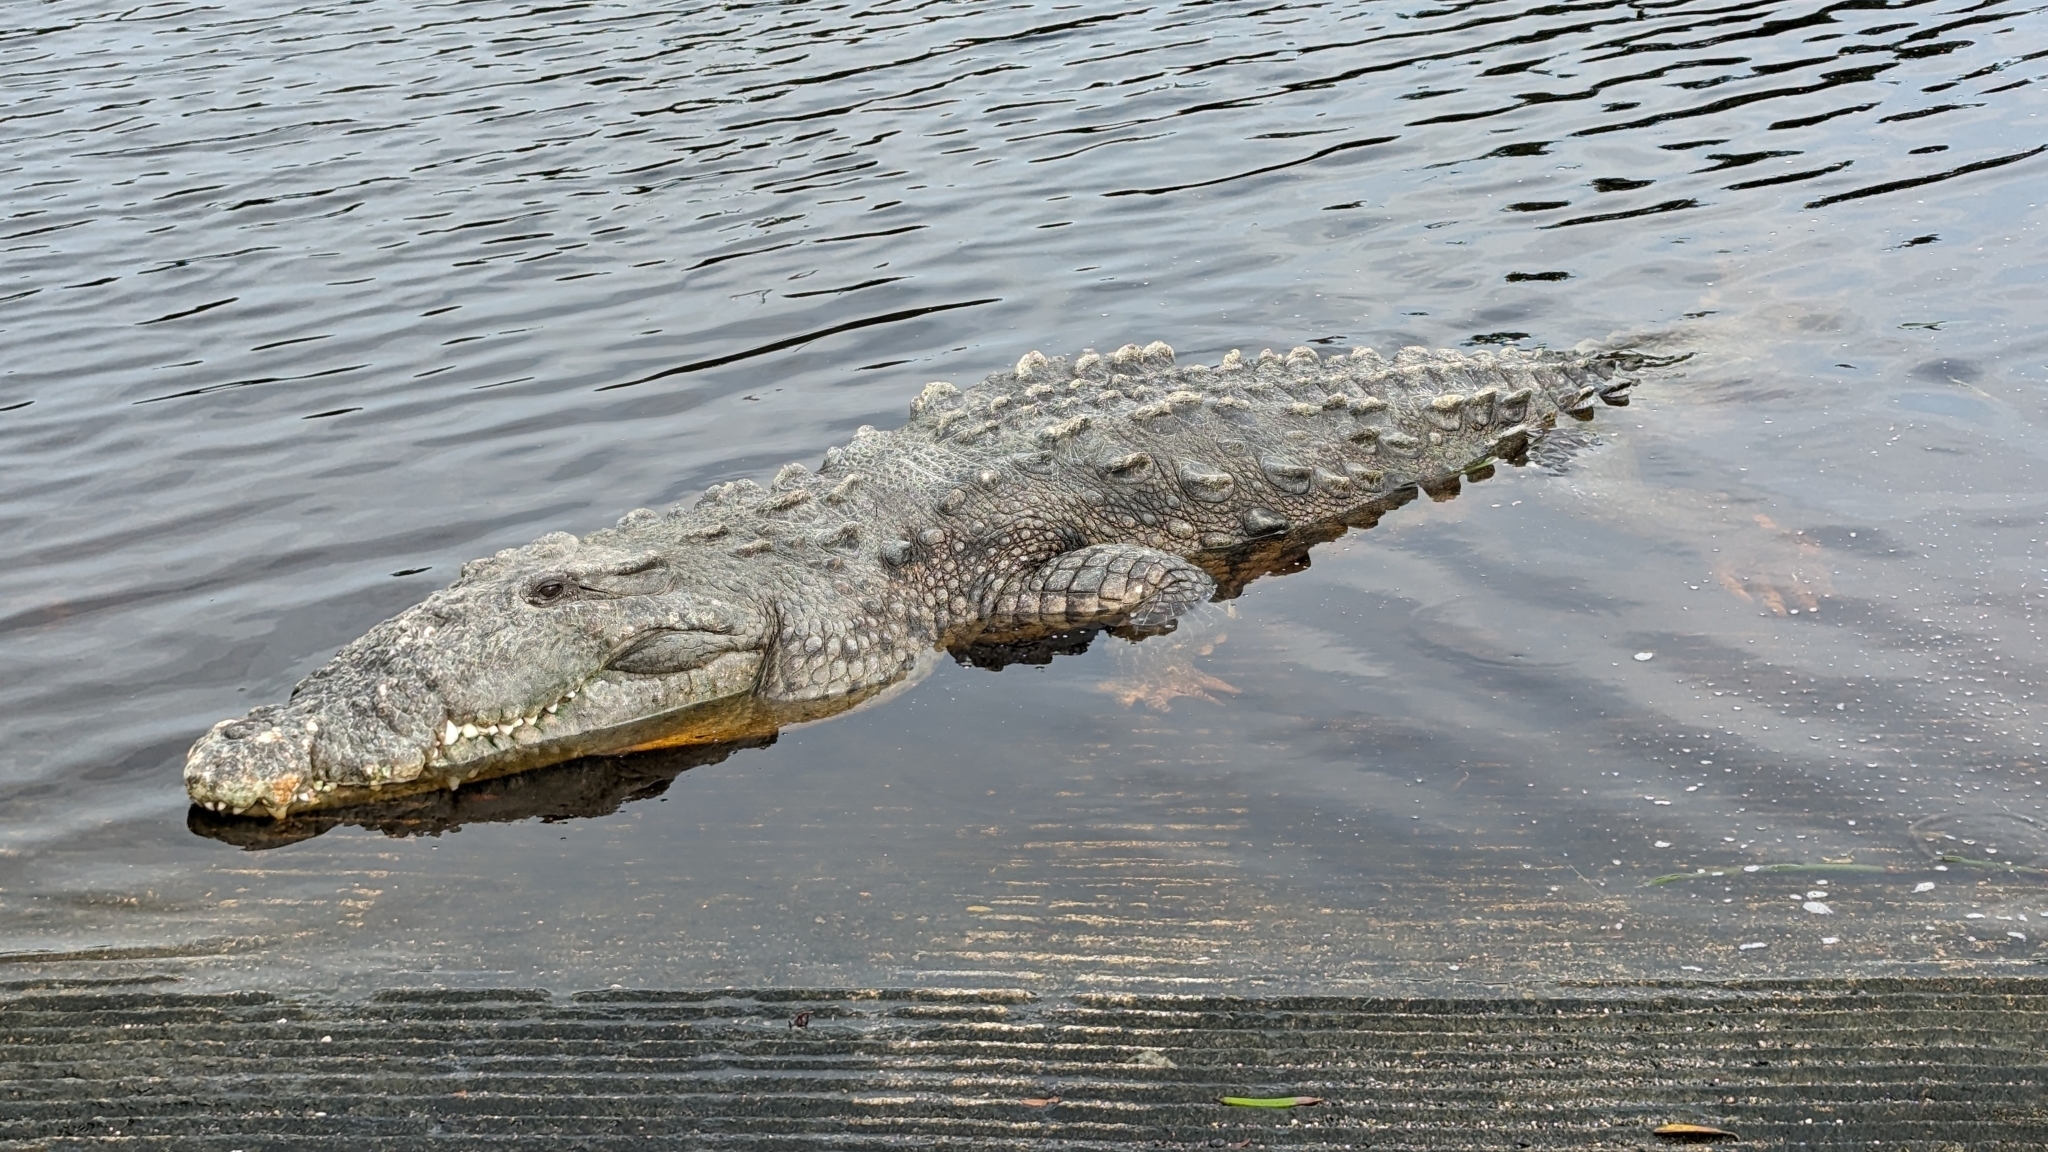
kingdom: Animalia
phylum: Chordata
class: Crocodylia
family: Crocodylidae
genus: Crocodylus
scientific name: Crocodylus acutus
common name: American crocodile
